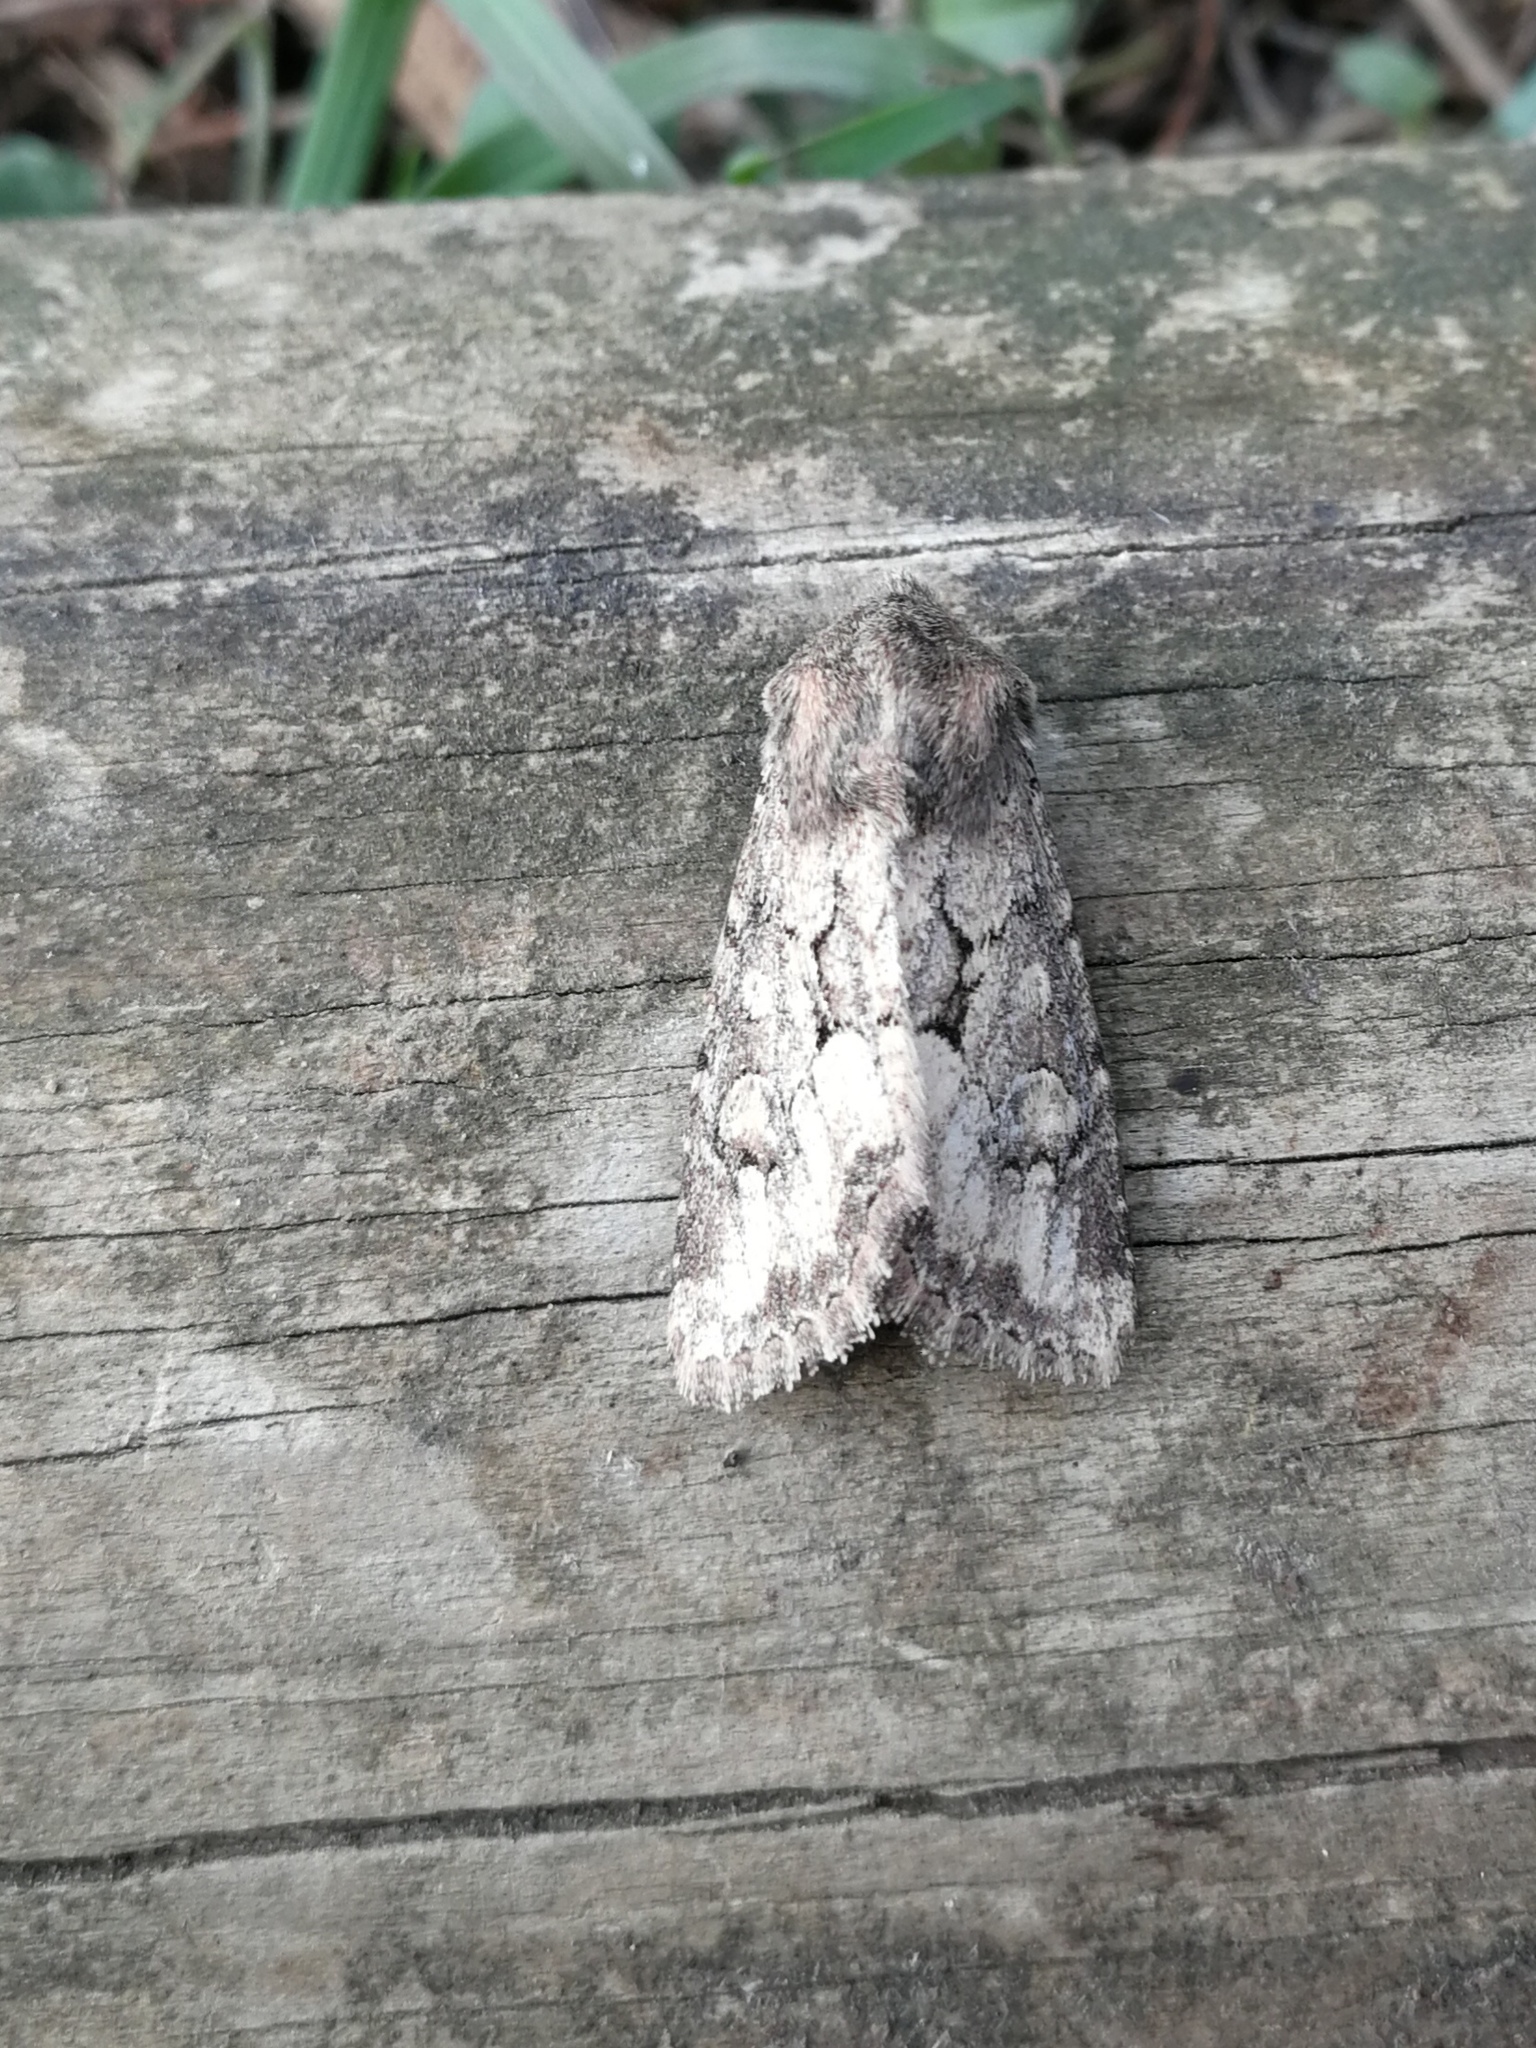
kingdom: Animalia
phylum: Arthropoda
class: Insecta
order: Lepidoptera
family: Noctuidae
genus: Luperina
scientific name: Luperina testacea
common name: Flounced rustic
